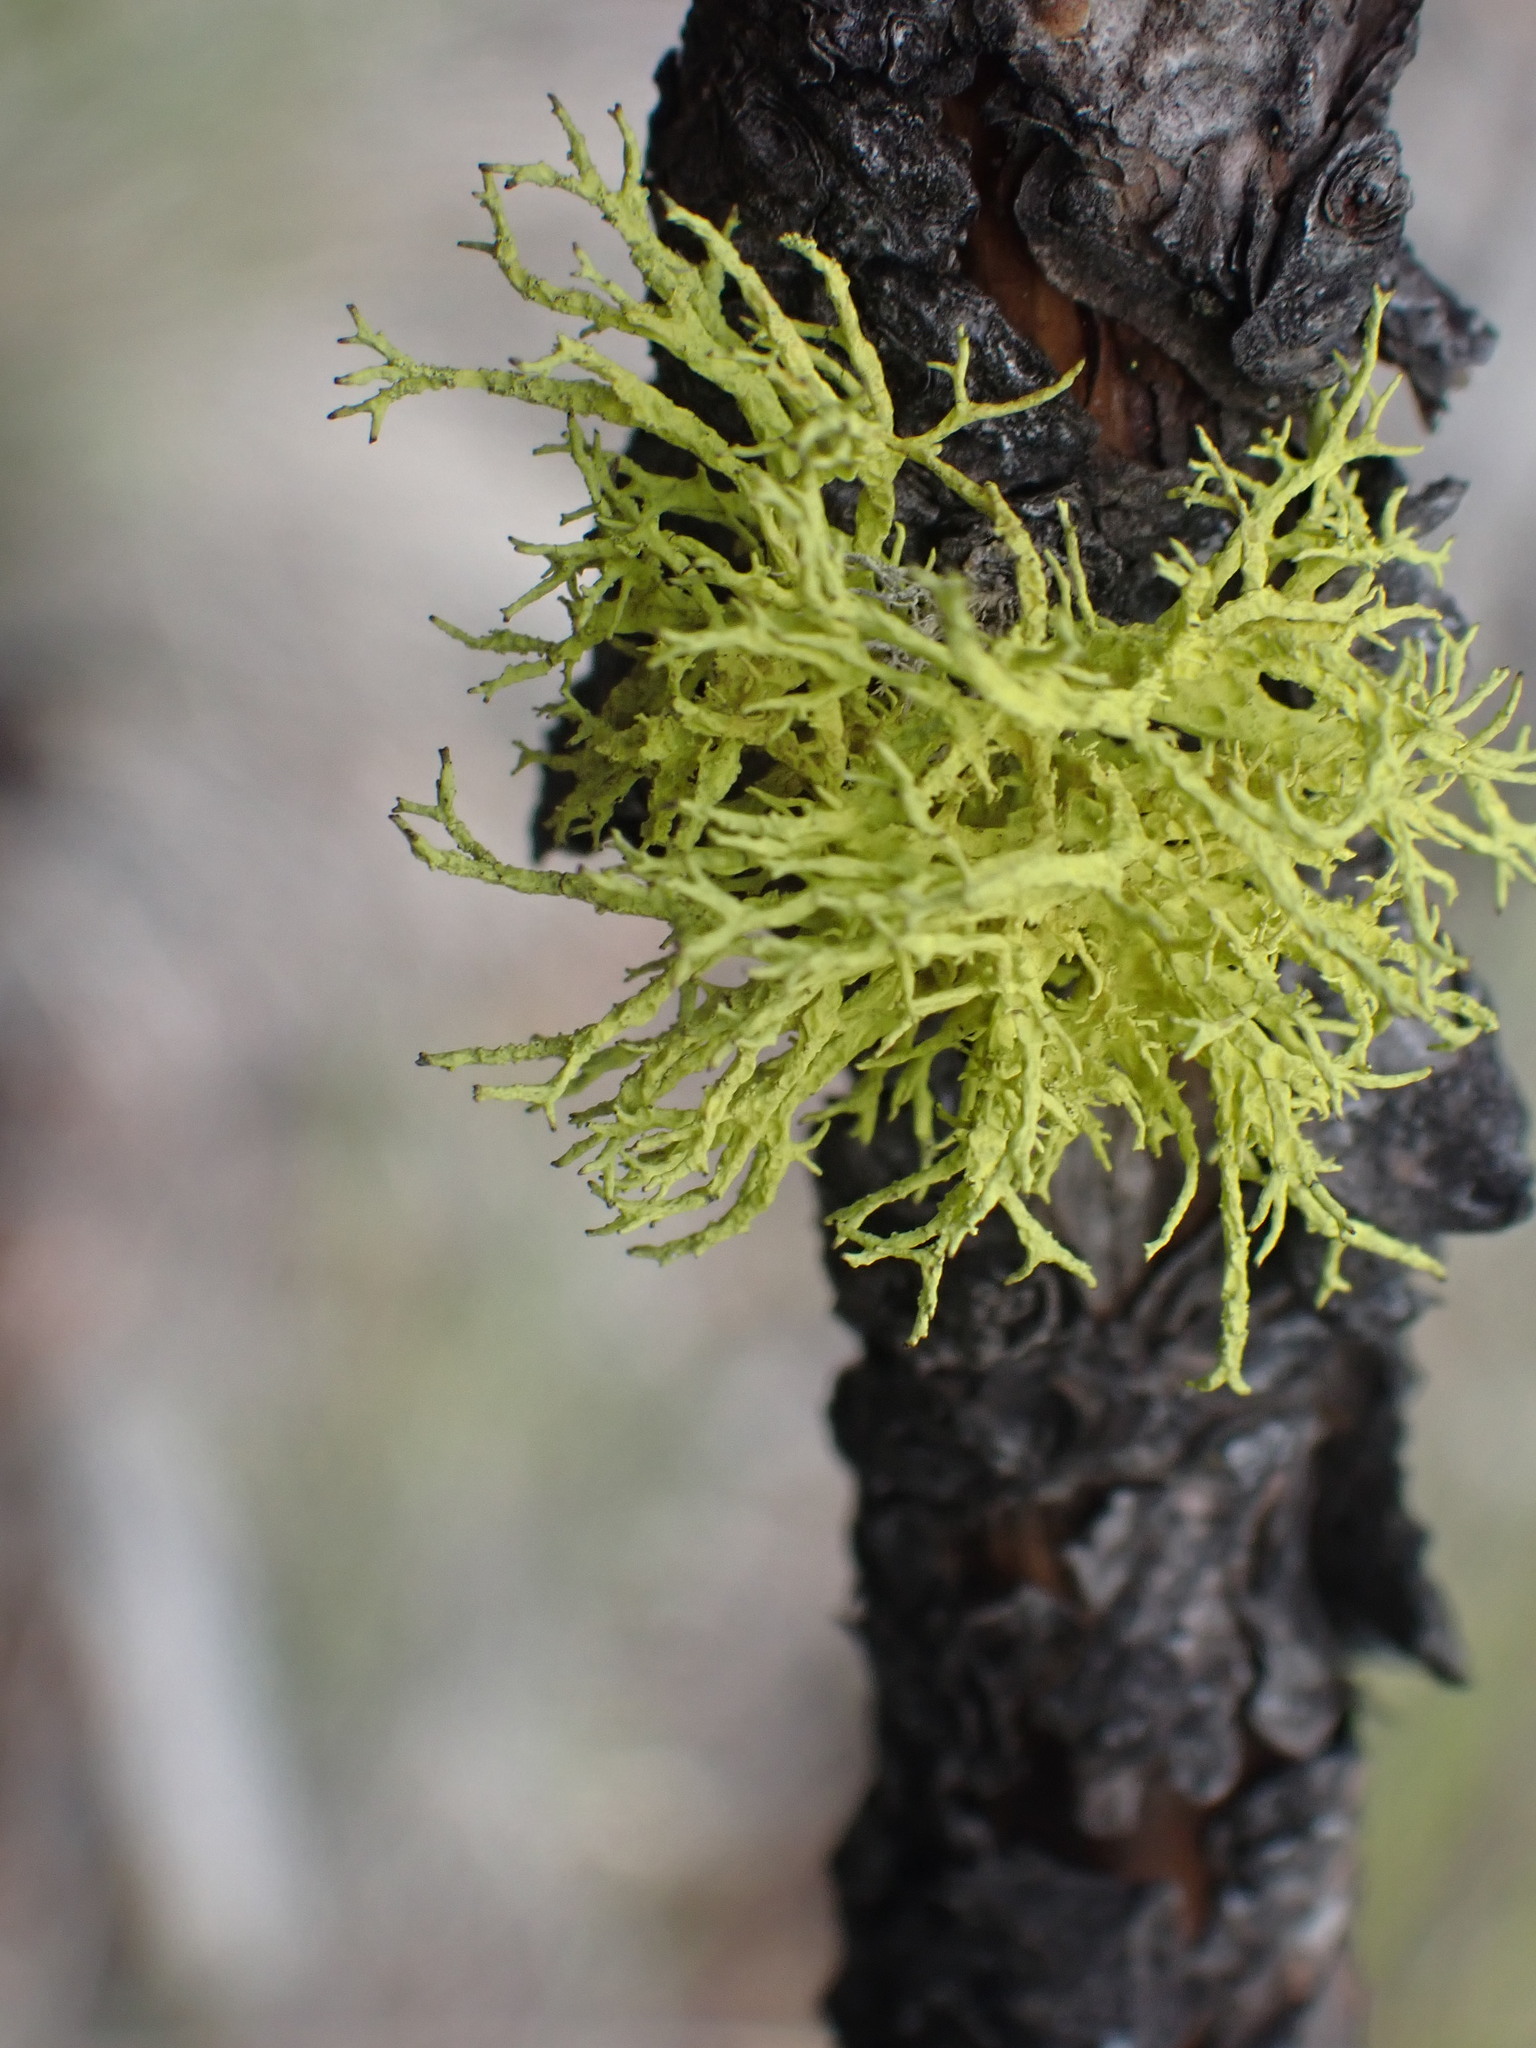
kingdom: Fungi
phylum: Ascomycota
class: Lecanoromycetes
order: Lecanorales
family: Parmeliaceae
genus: Letharia
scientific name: Letharia vulpina
